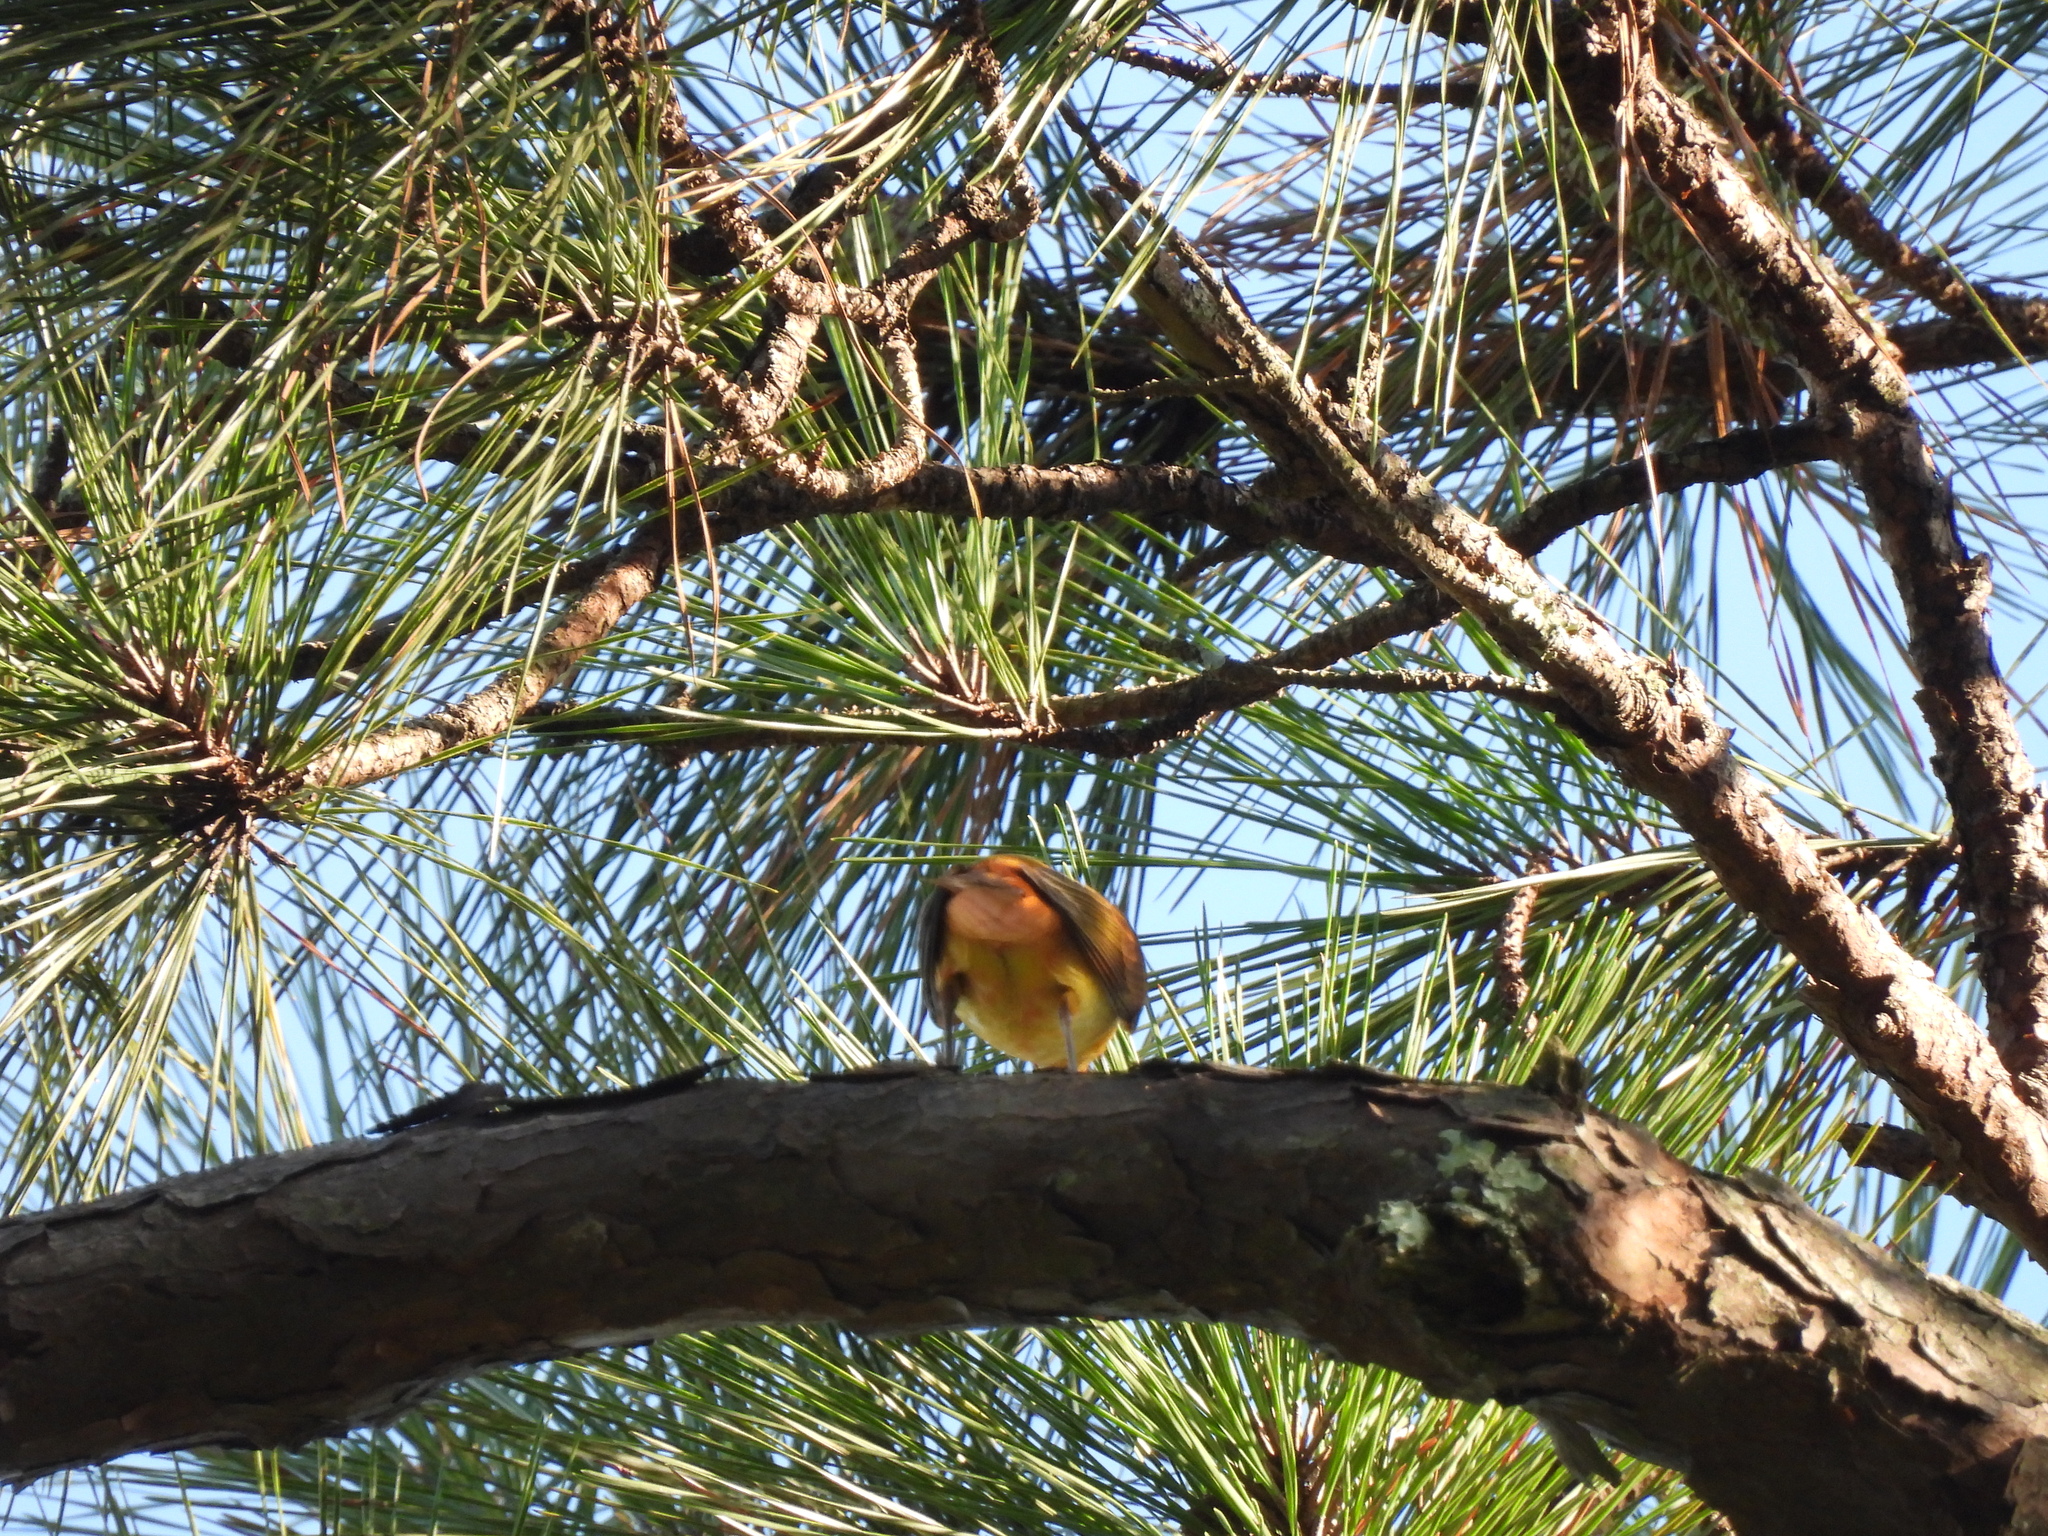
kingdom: Animalia
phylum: Chordata
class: Aves
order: Passeriformes
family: Cardinalidae
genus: Piranga
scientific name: Piranga rubra
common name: Summer tanager
